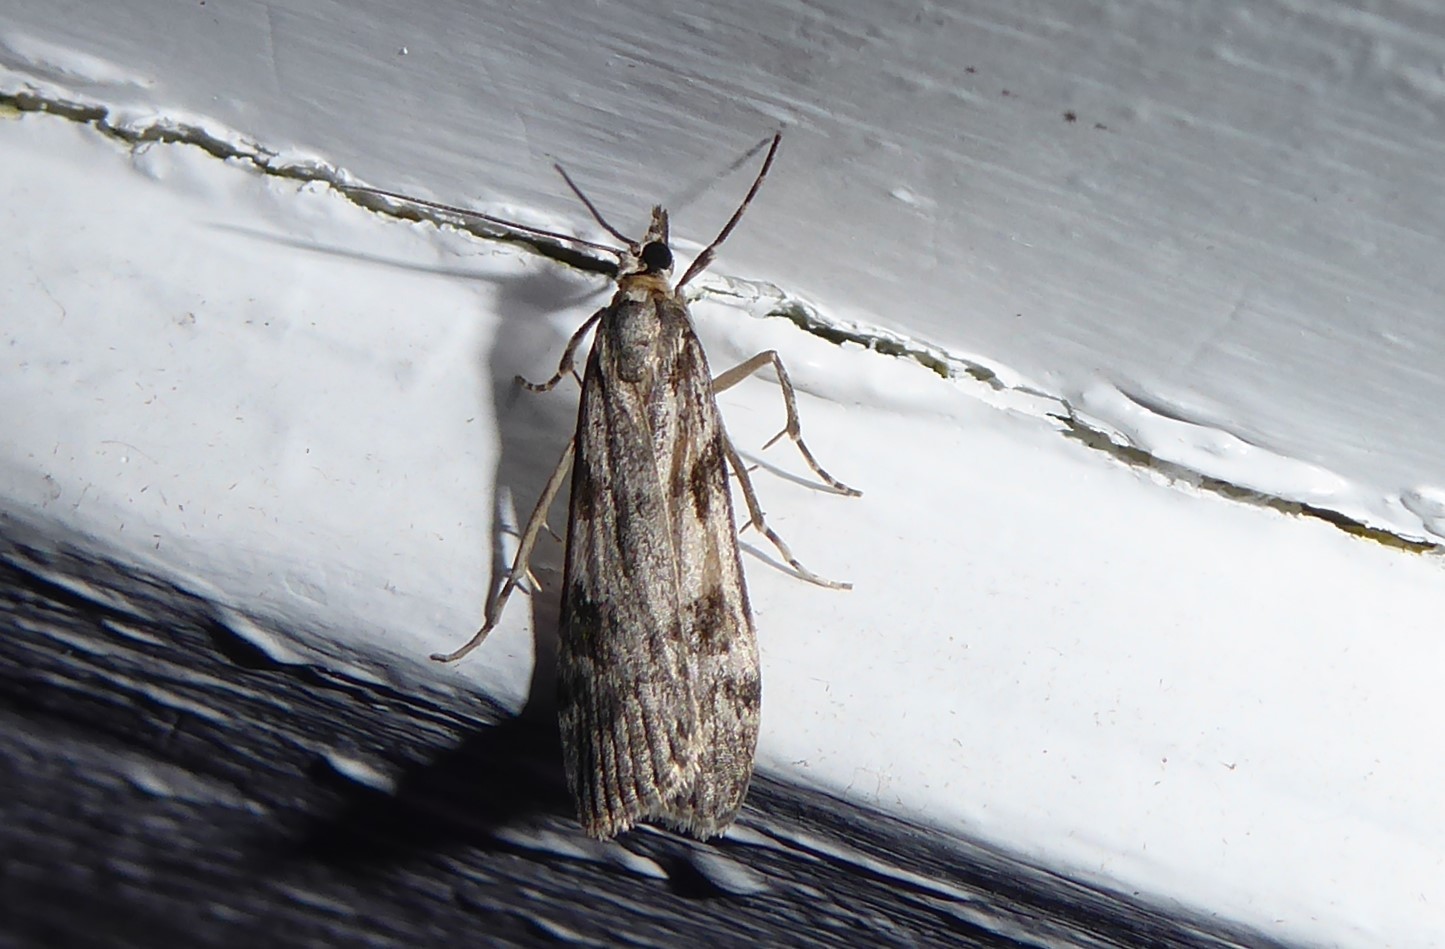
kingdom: Animalia
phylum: Arthropoda
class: Insecta
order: Lepidoptera
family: Crambidae
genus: Scoparia
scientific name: Scoparia halopis
